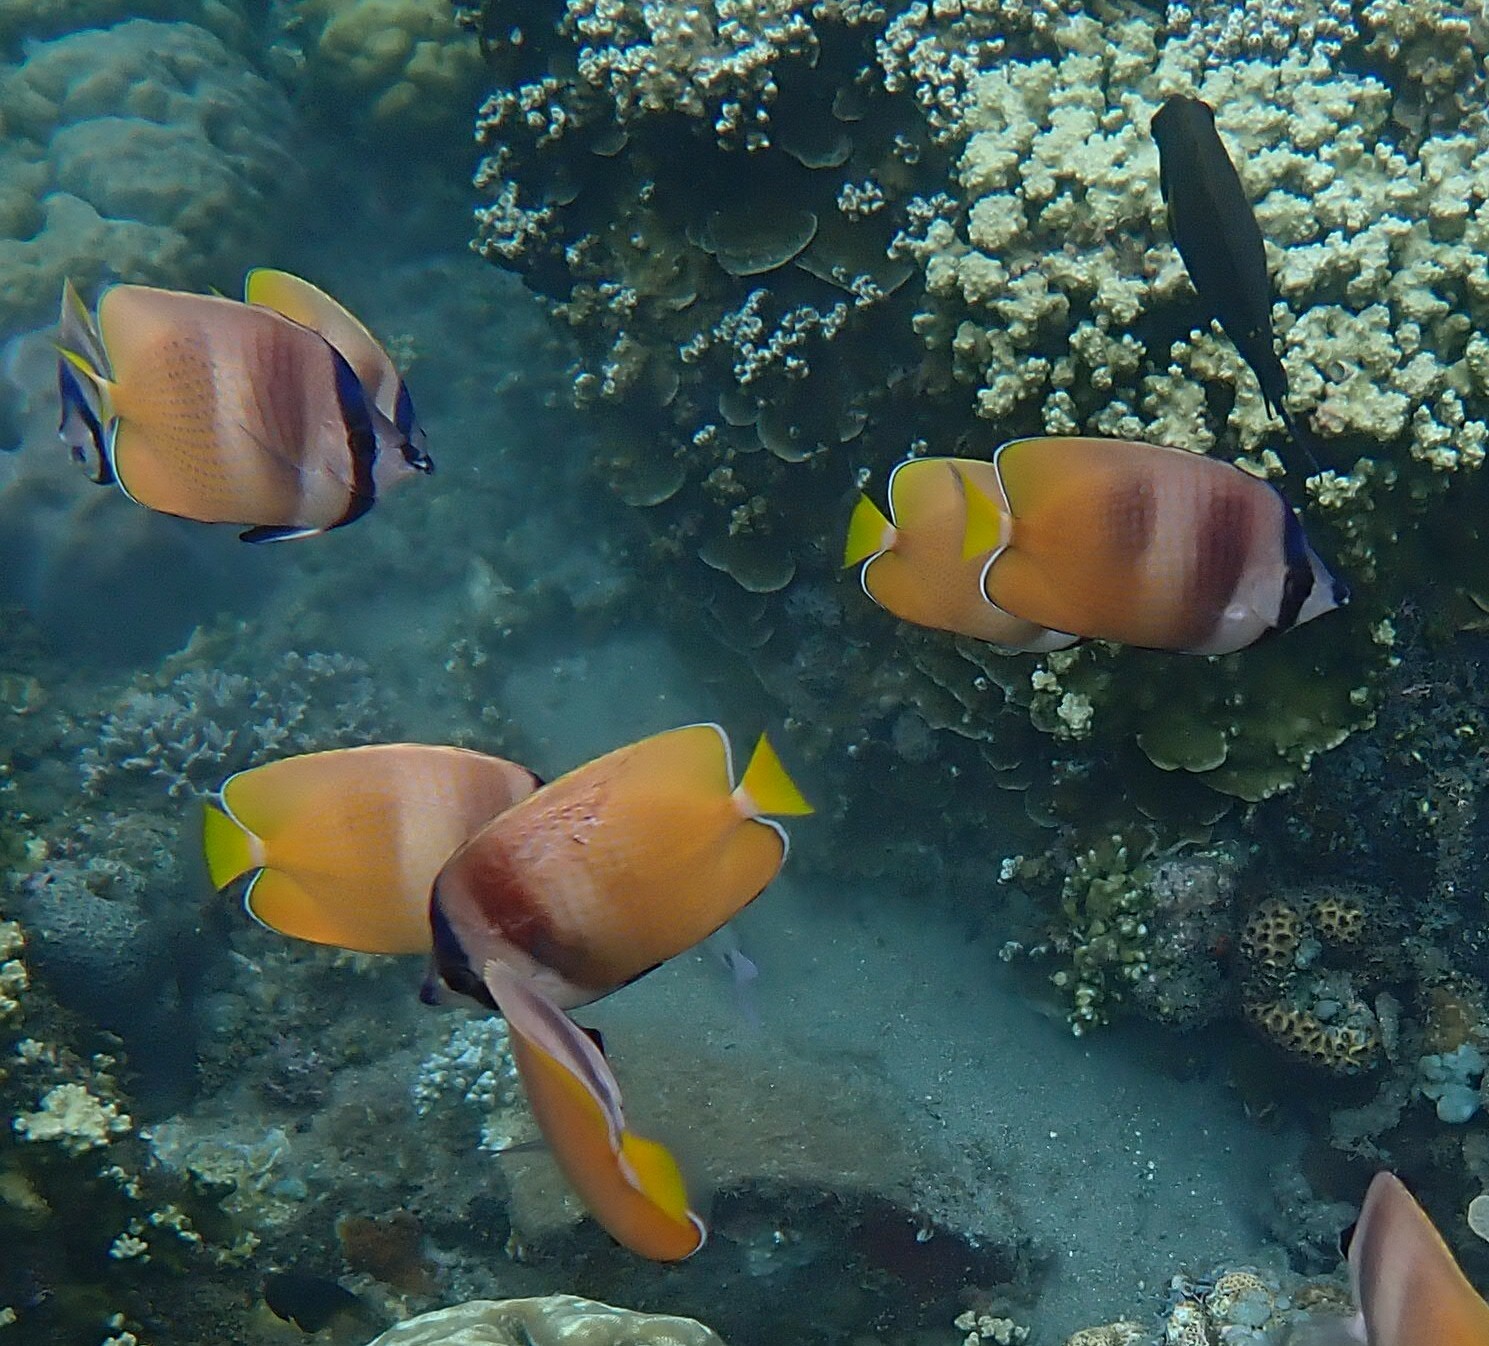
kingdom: Animalia
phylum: Chordata
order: Perciformes
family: Chaetodontidae
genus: Chaetodon
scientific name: Chaetodon kleinii
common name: Klein's butterflyfish
